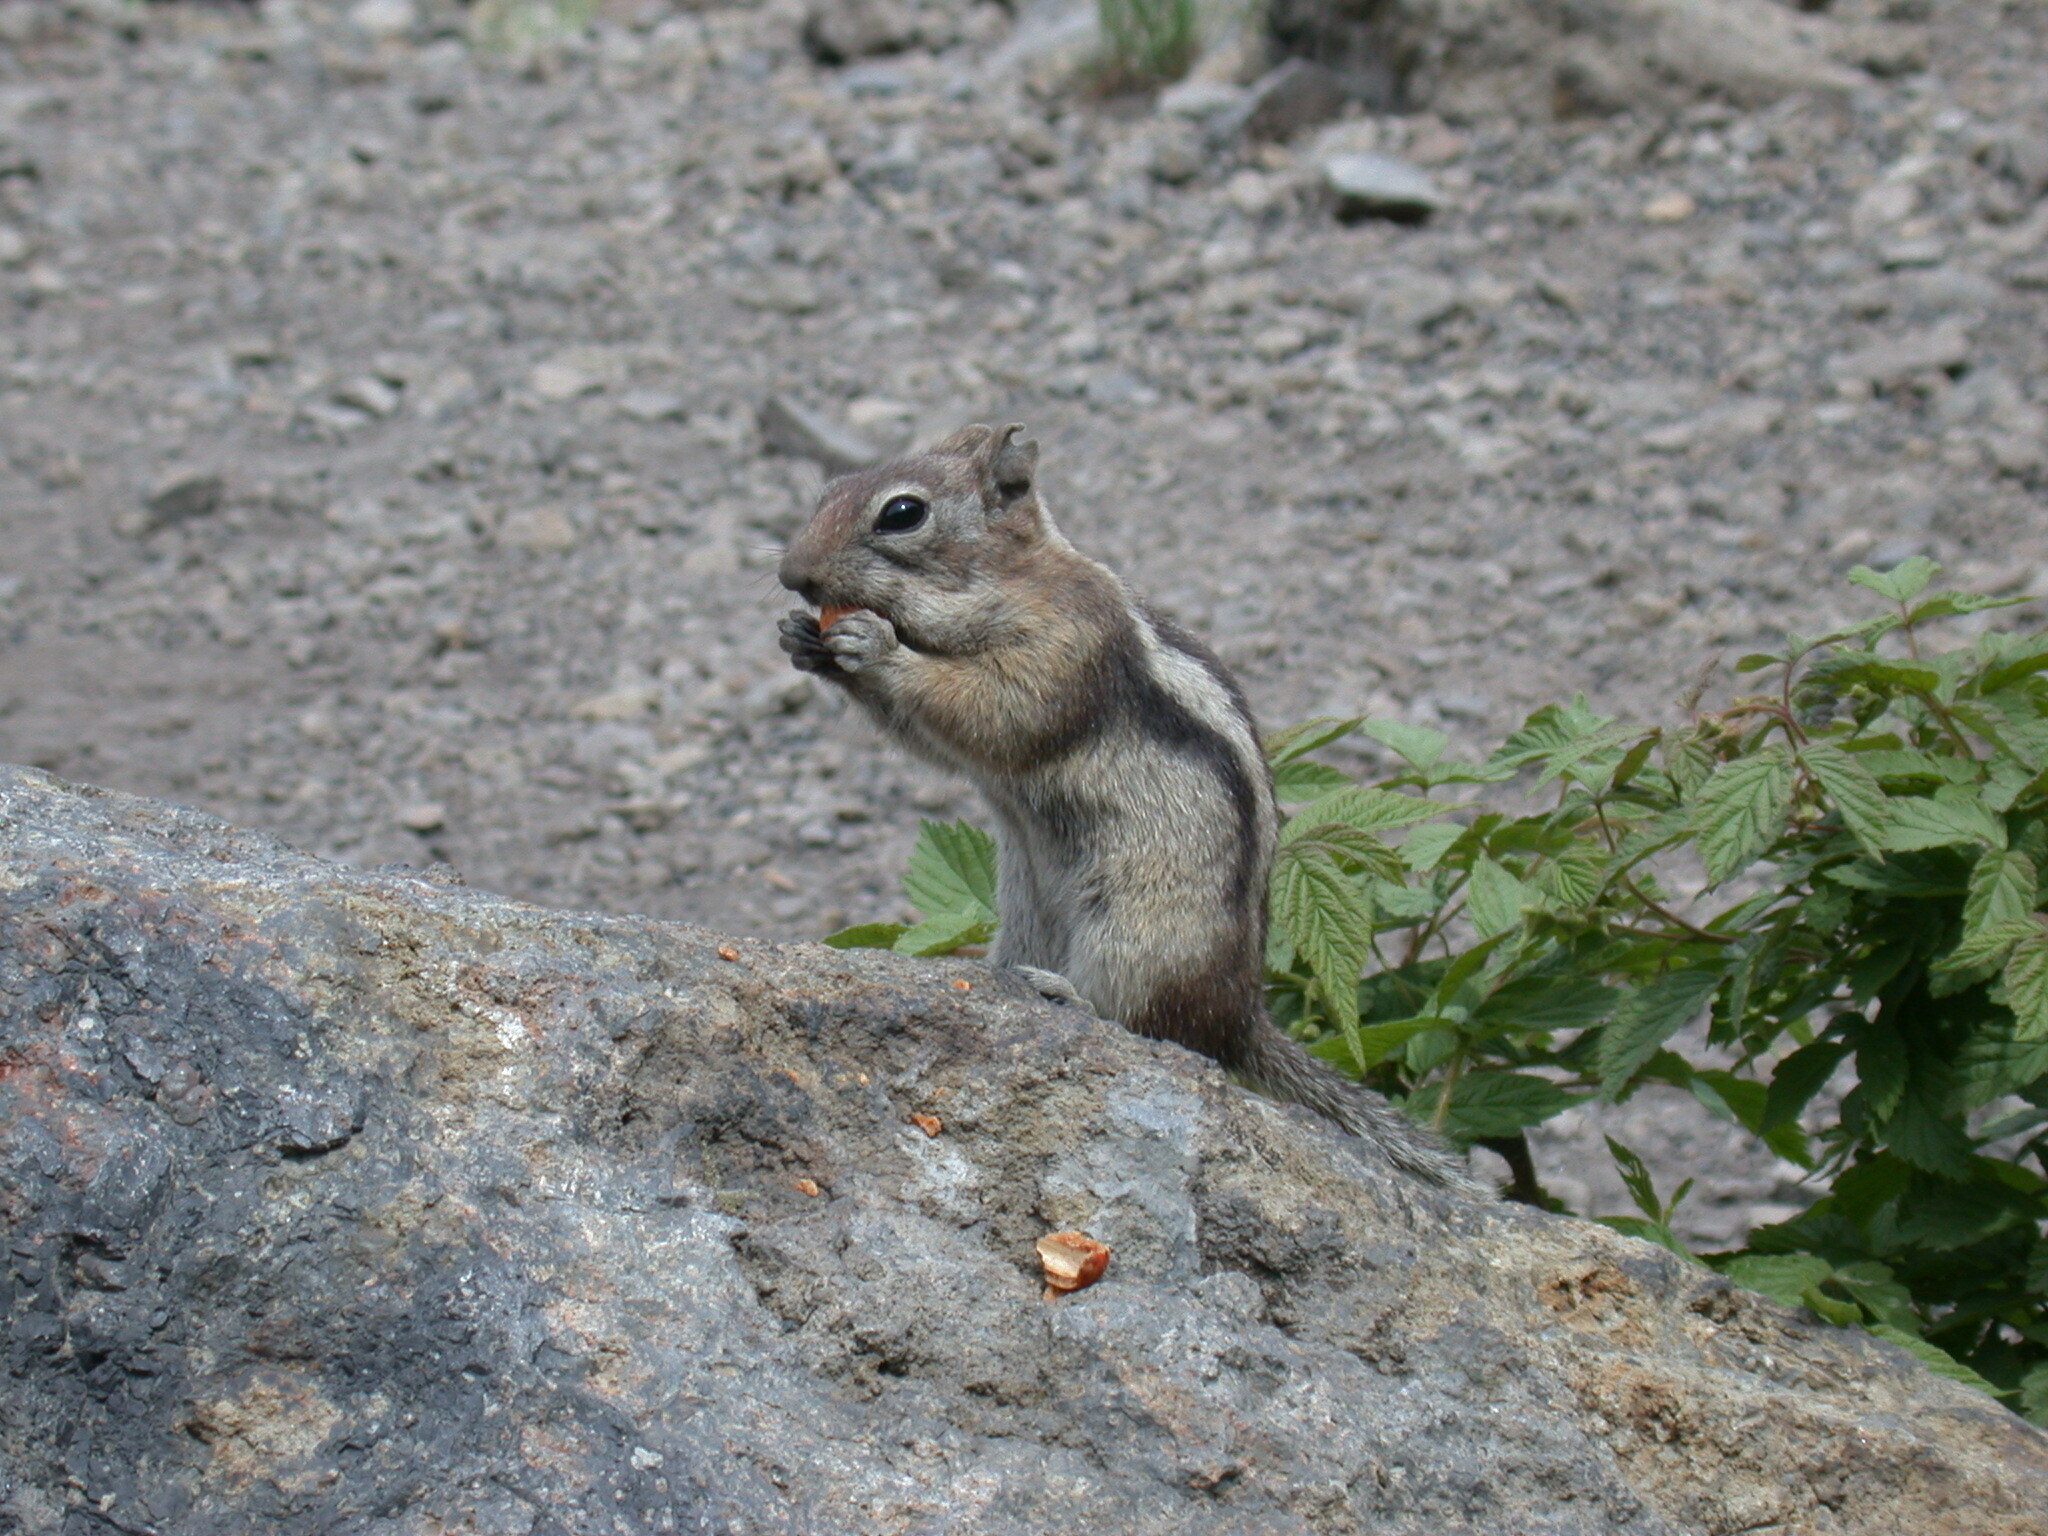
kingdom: Plantae
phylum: Tracheophyta
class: Magnoliopsida
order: Rosales
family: Rosaceae
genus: Rubus
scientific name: Rubus idaeus
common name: Raspberry
